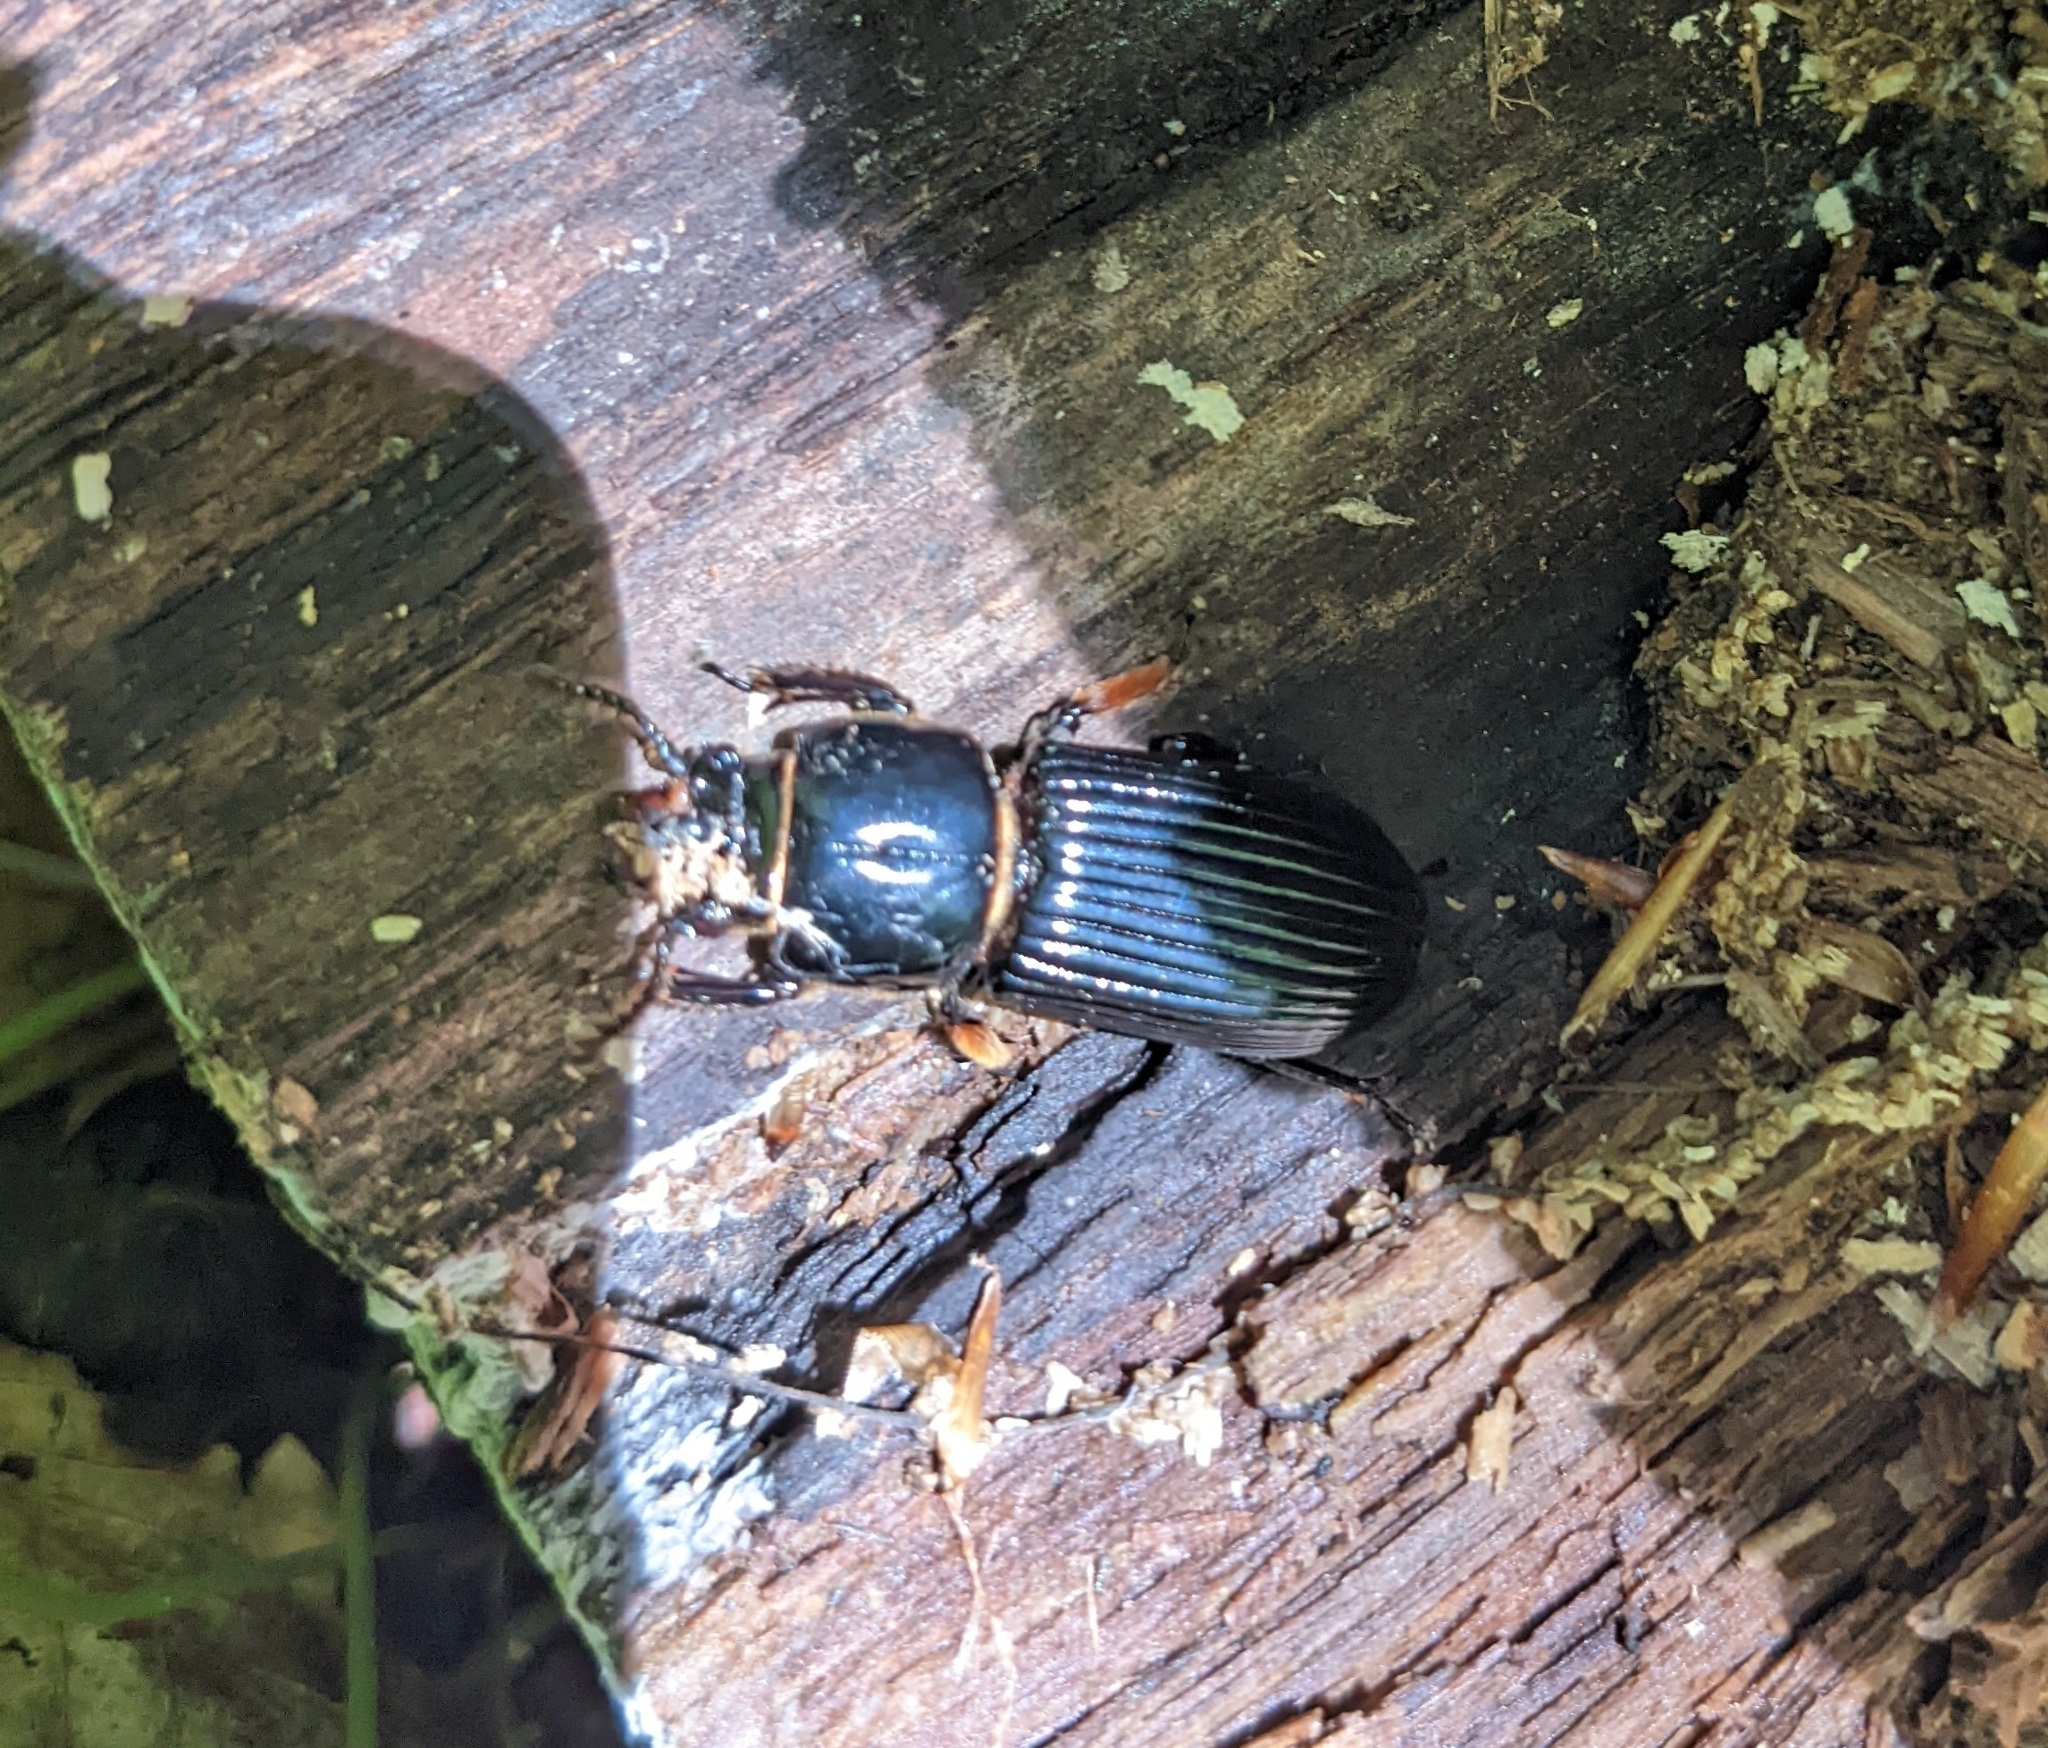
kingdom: Animalia
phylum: Arthropoda
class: Insecta
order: Coleoptera
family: Passalidae
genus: Odontotaenius
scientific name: Odontotaenius disjunctus
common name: Patent leather beetle
